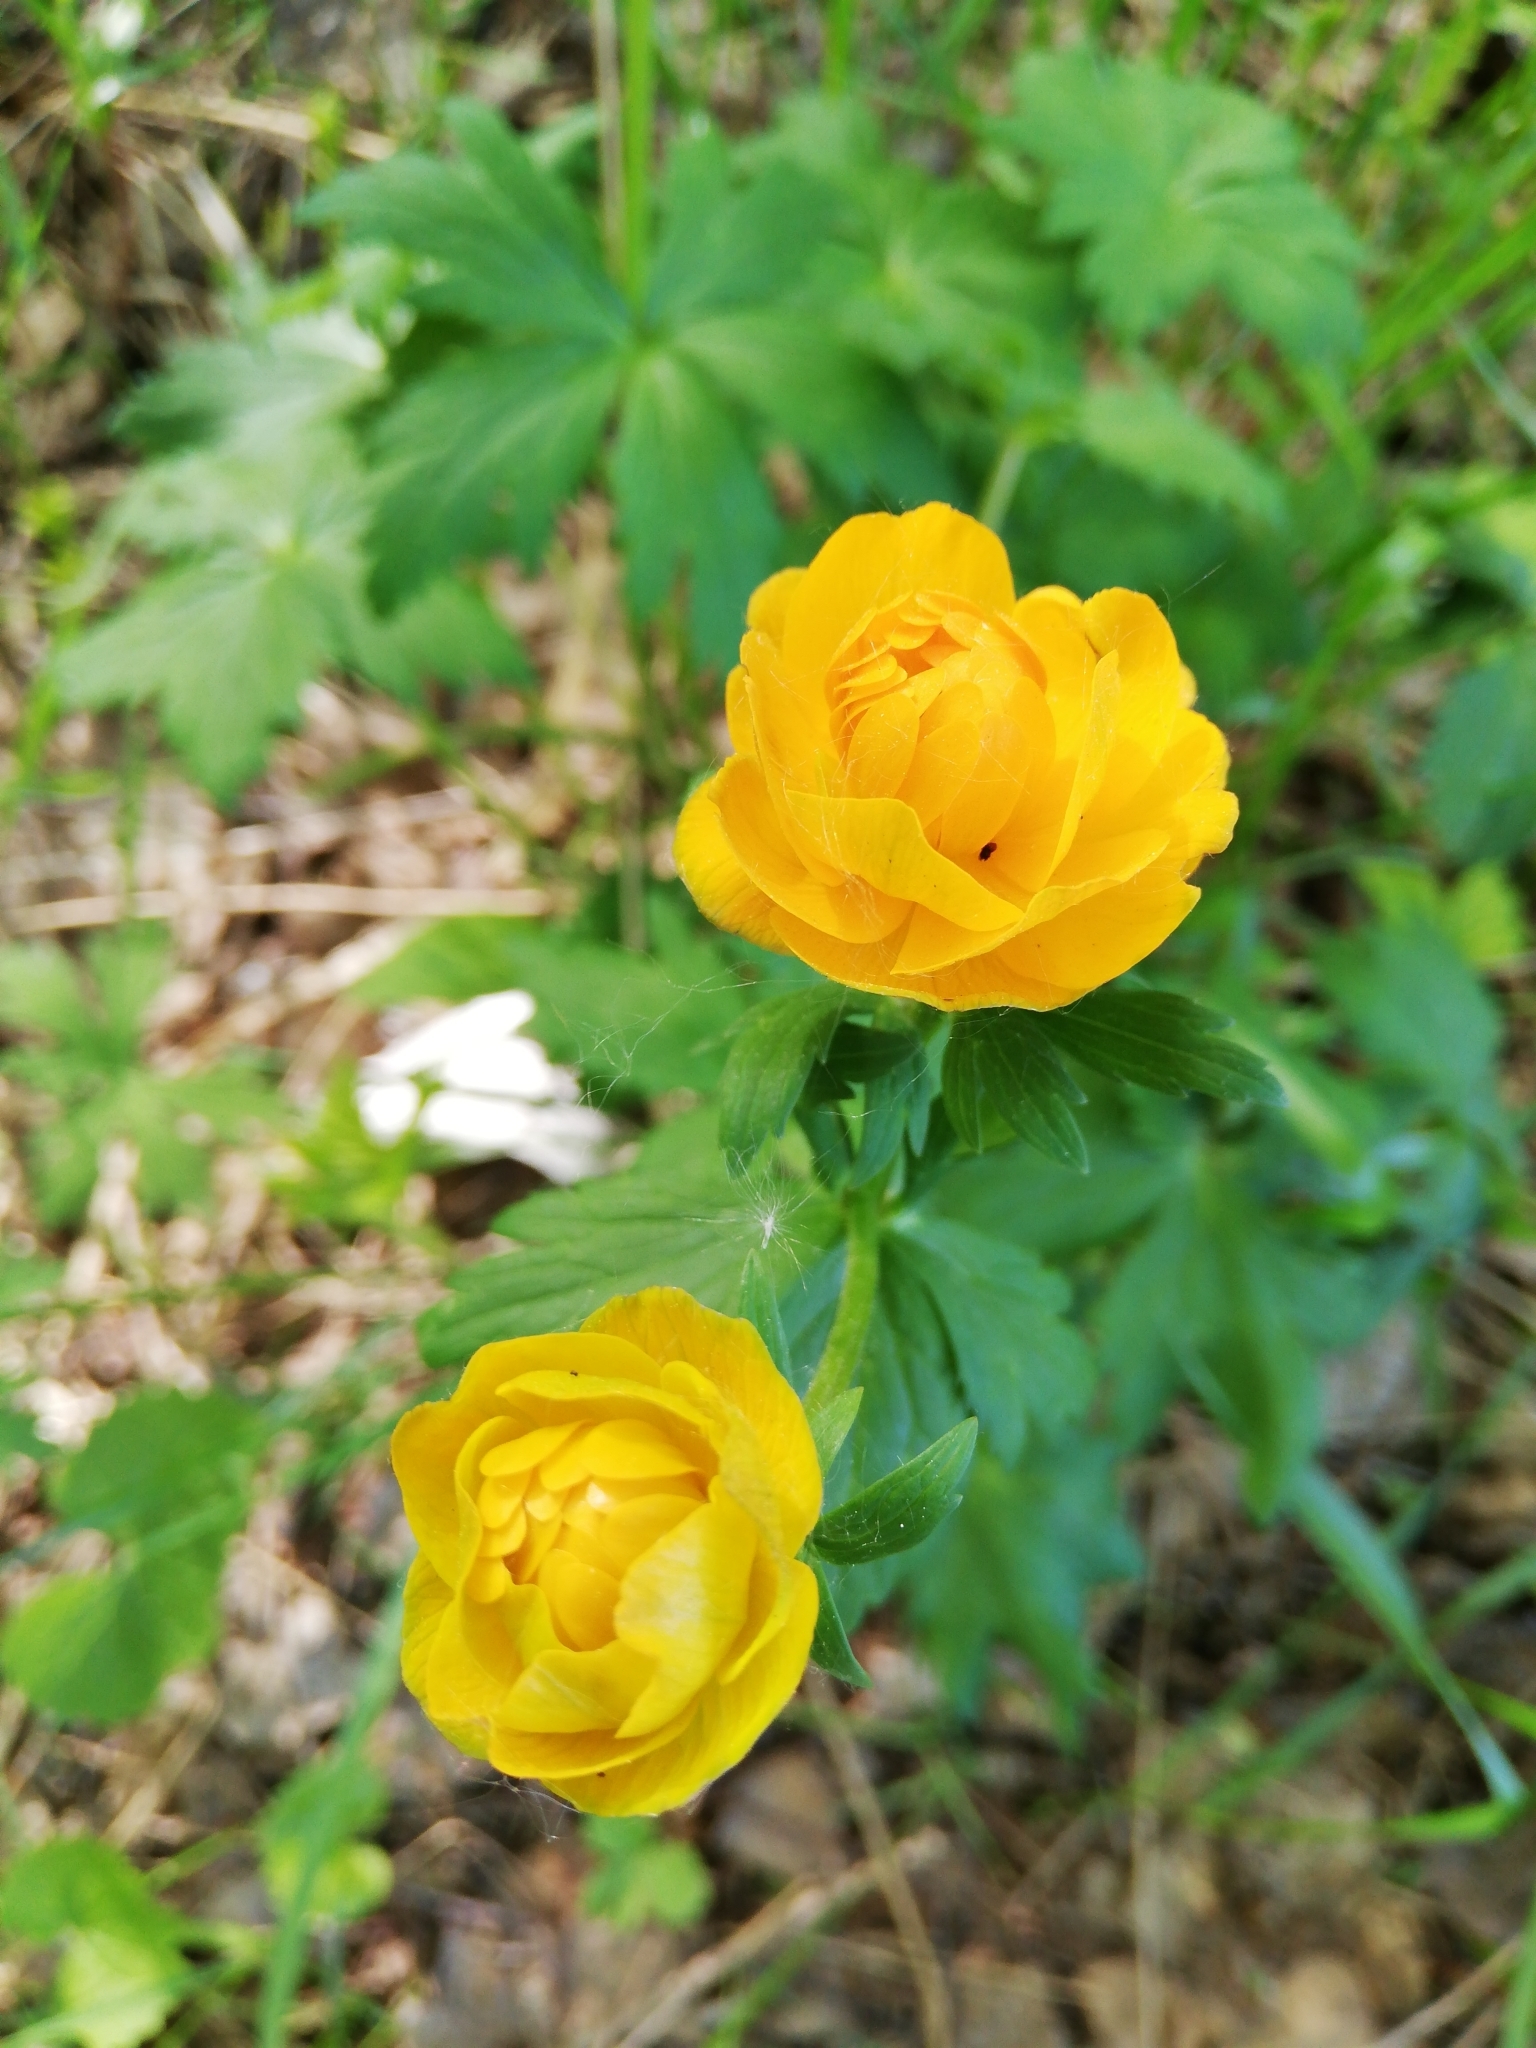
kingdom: Plantae
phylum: Tracheophyta
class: Magnoliopsida
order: Ranunculales
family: Ranunculaceae
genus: Trollius
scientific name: Trollius asiaticus
